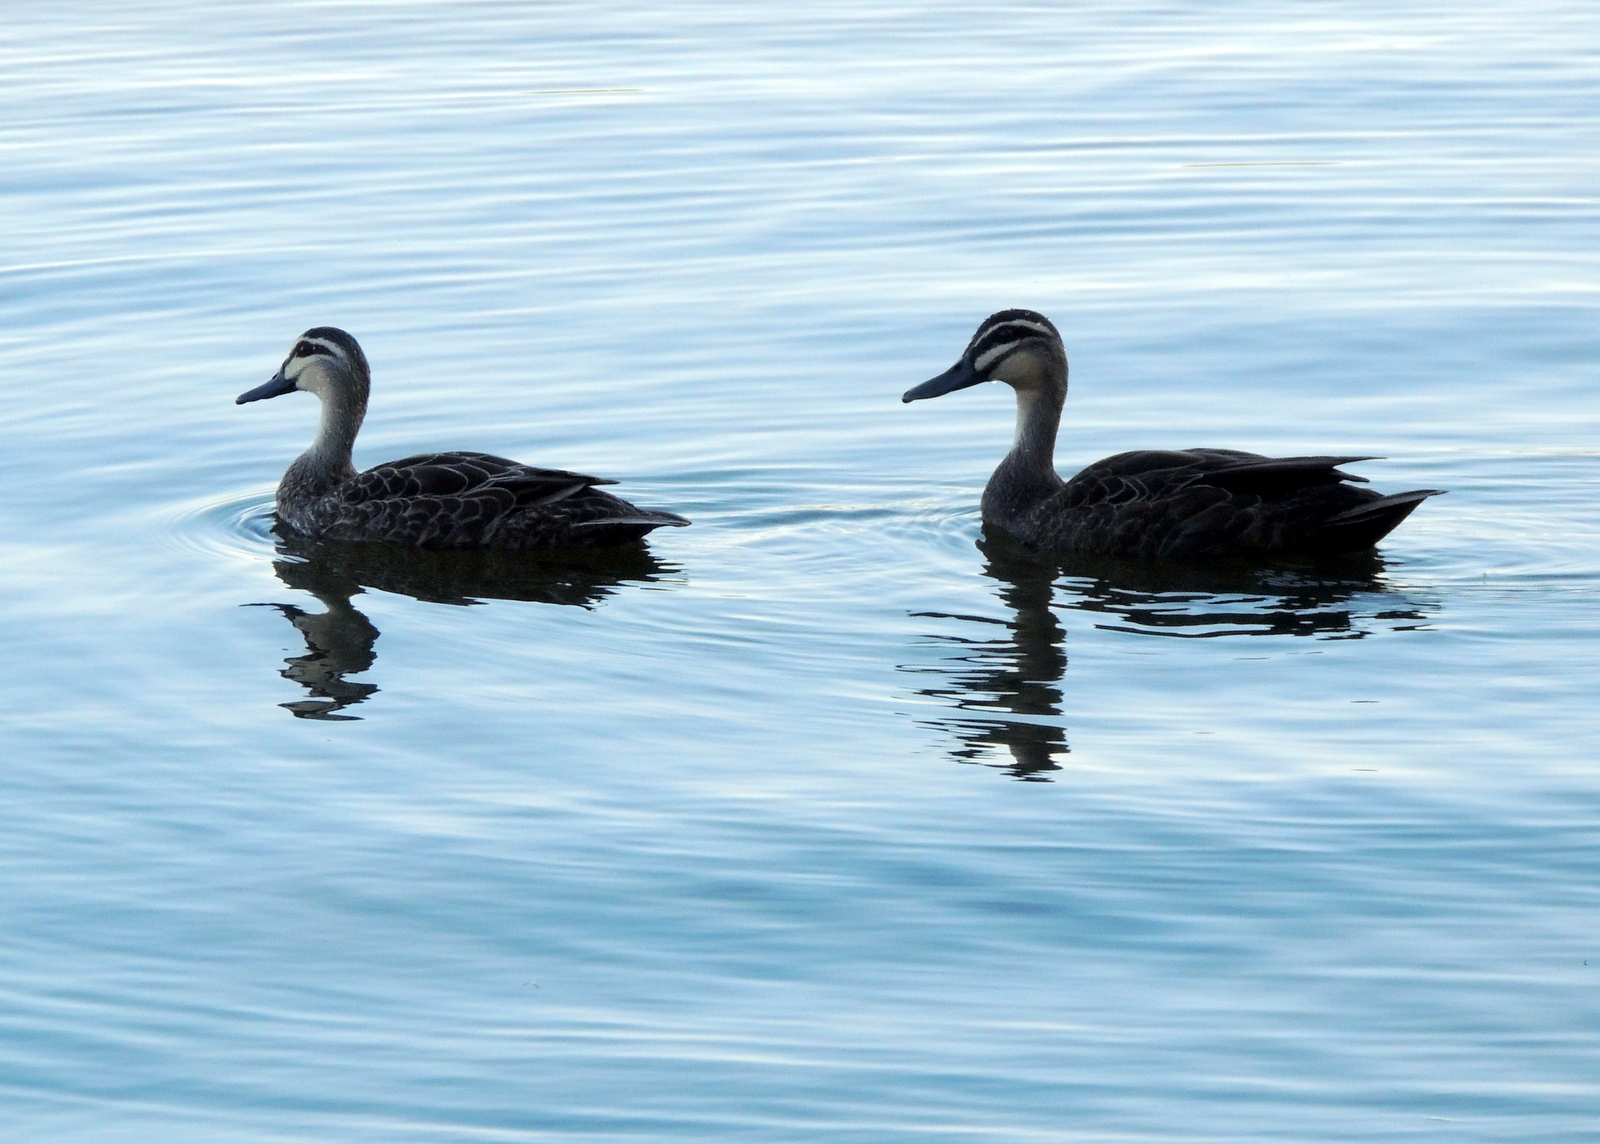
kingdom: Animalia
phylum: Chordata
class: Aves
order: Anseriformes
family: Anatidae
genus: Anas
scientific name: Anas superciliosa
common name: Pacific black duck
